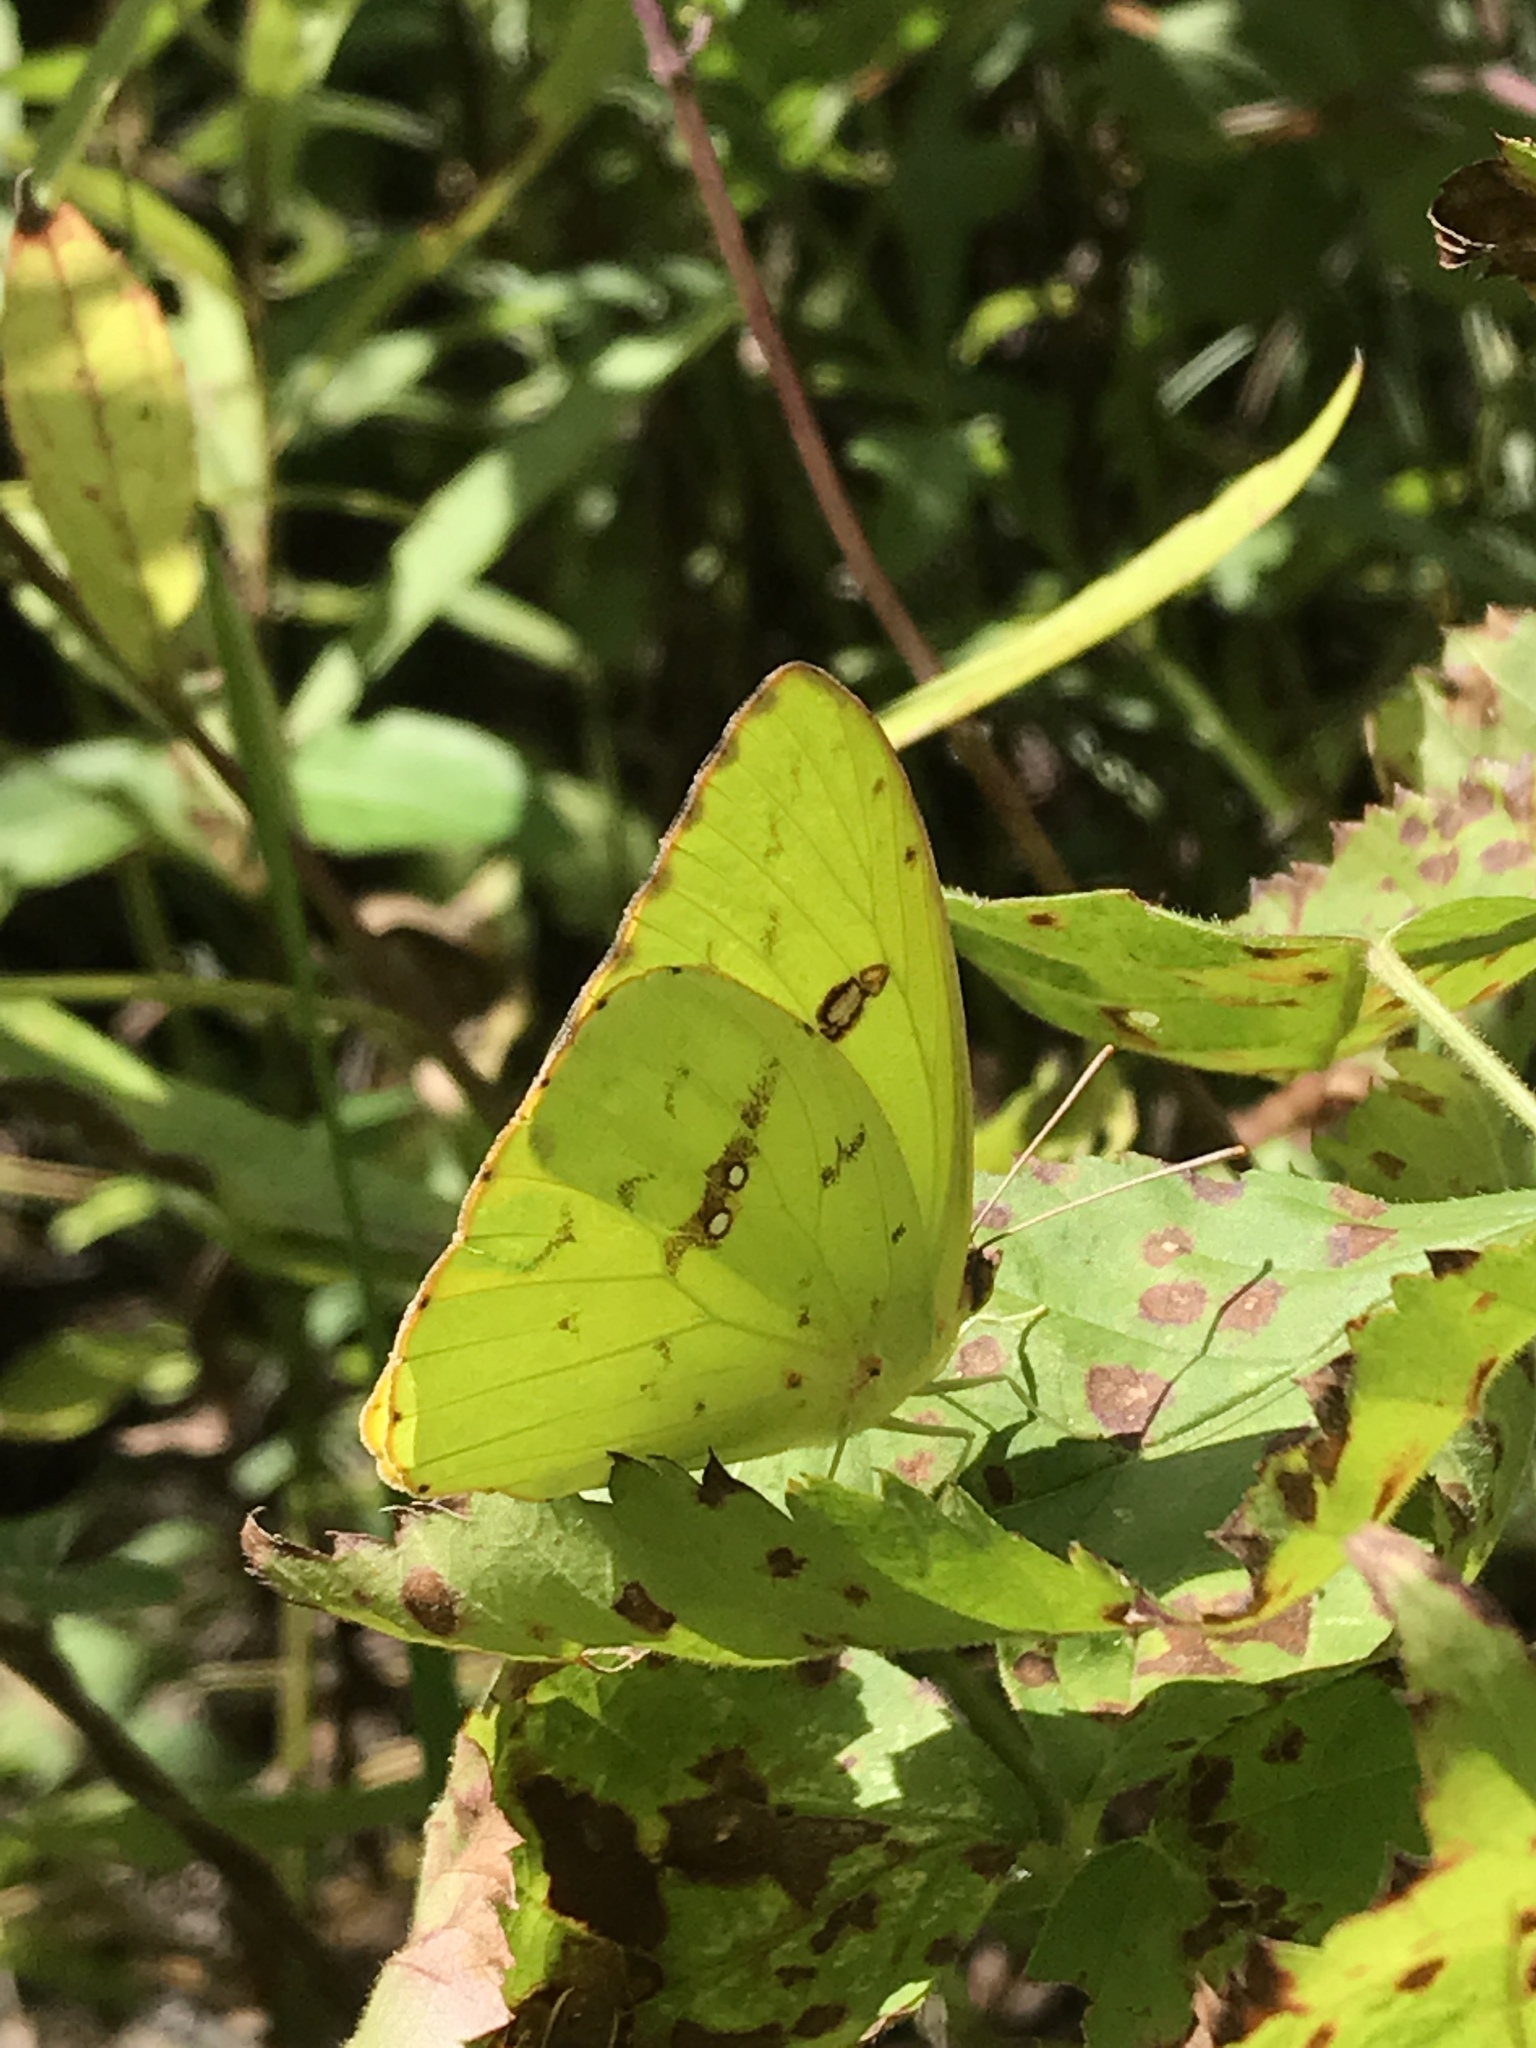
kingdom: Animalia
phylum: Arthropoda
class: Insecta
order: Lepidoptera
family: Pieridae
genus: Phoebis
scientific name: Phoebis sennae
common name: Cloudless sulphur
